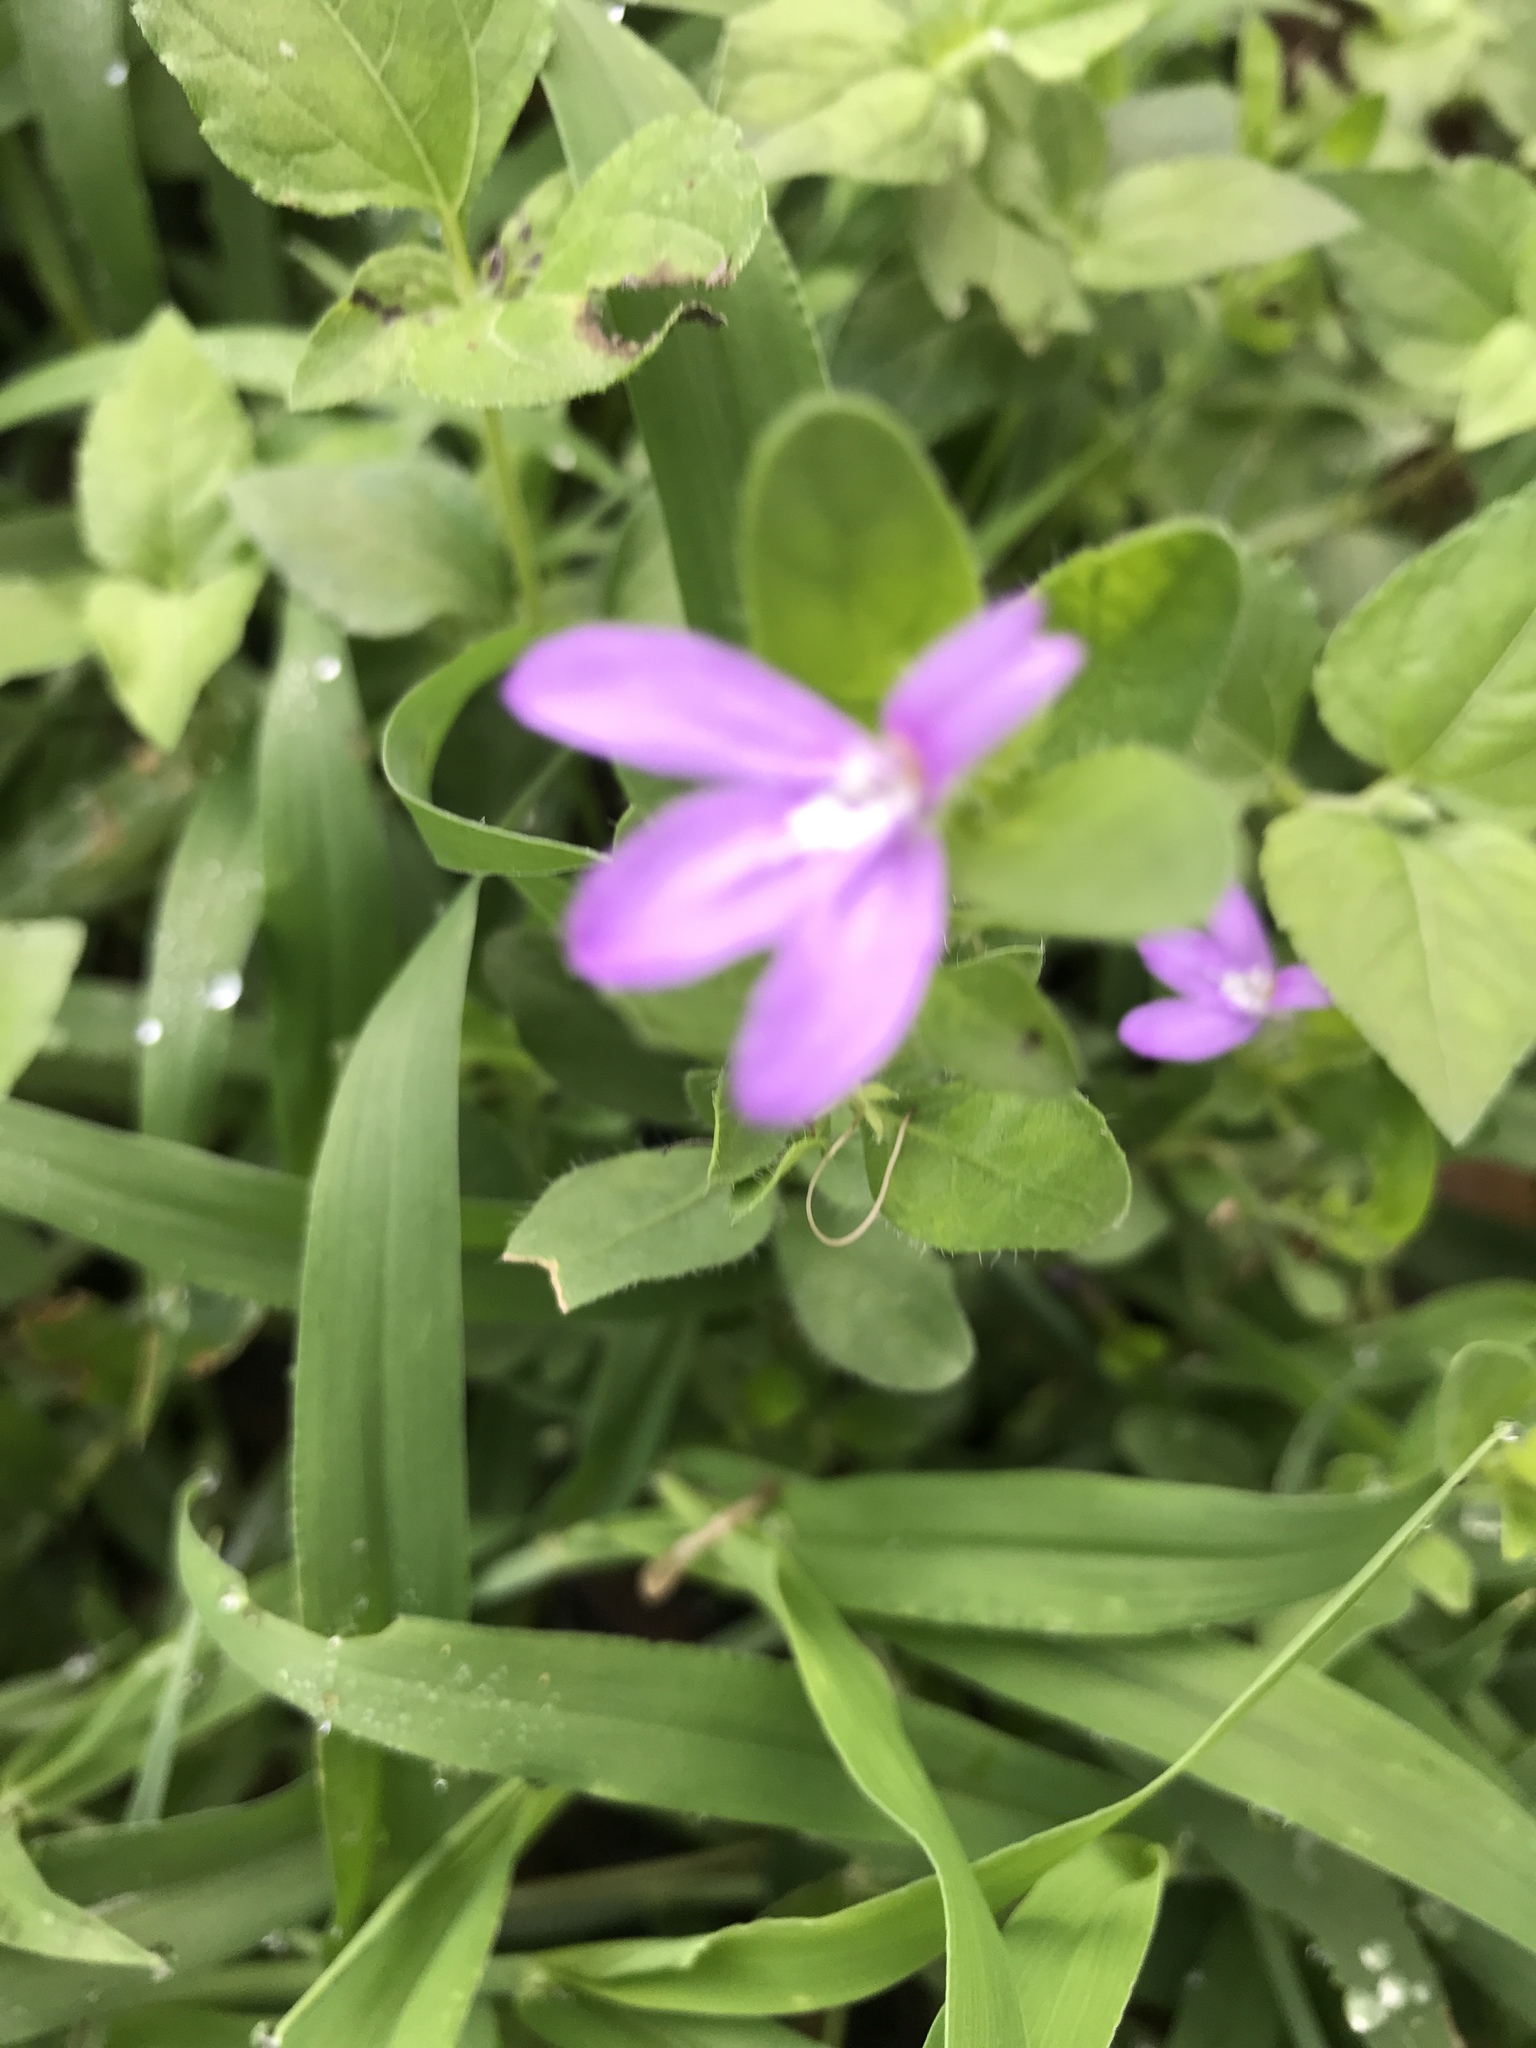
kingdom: Plantae
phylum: Tracheophyta
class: Magnoliopsida
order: Lamiales
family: Acanthaceae
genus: Justicia
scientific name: Justicia pilosella
